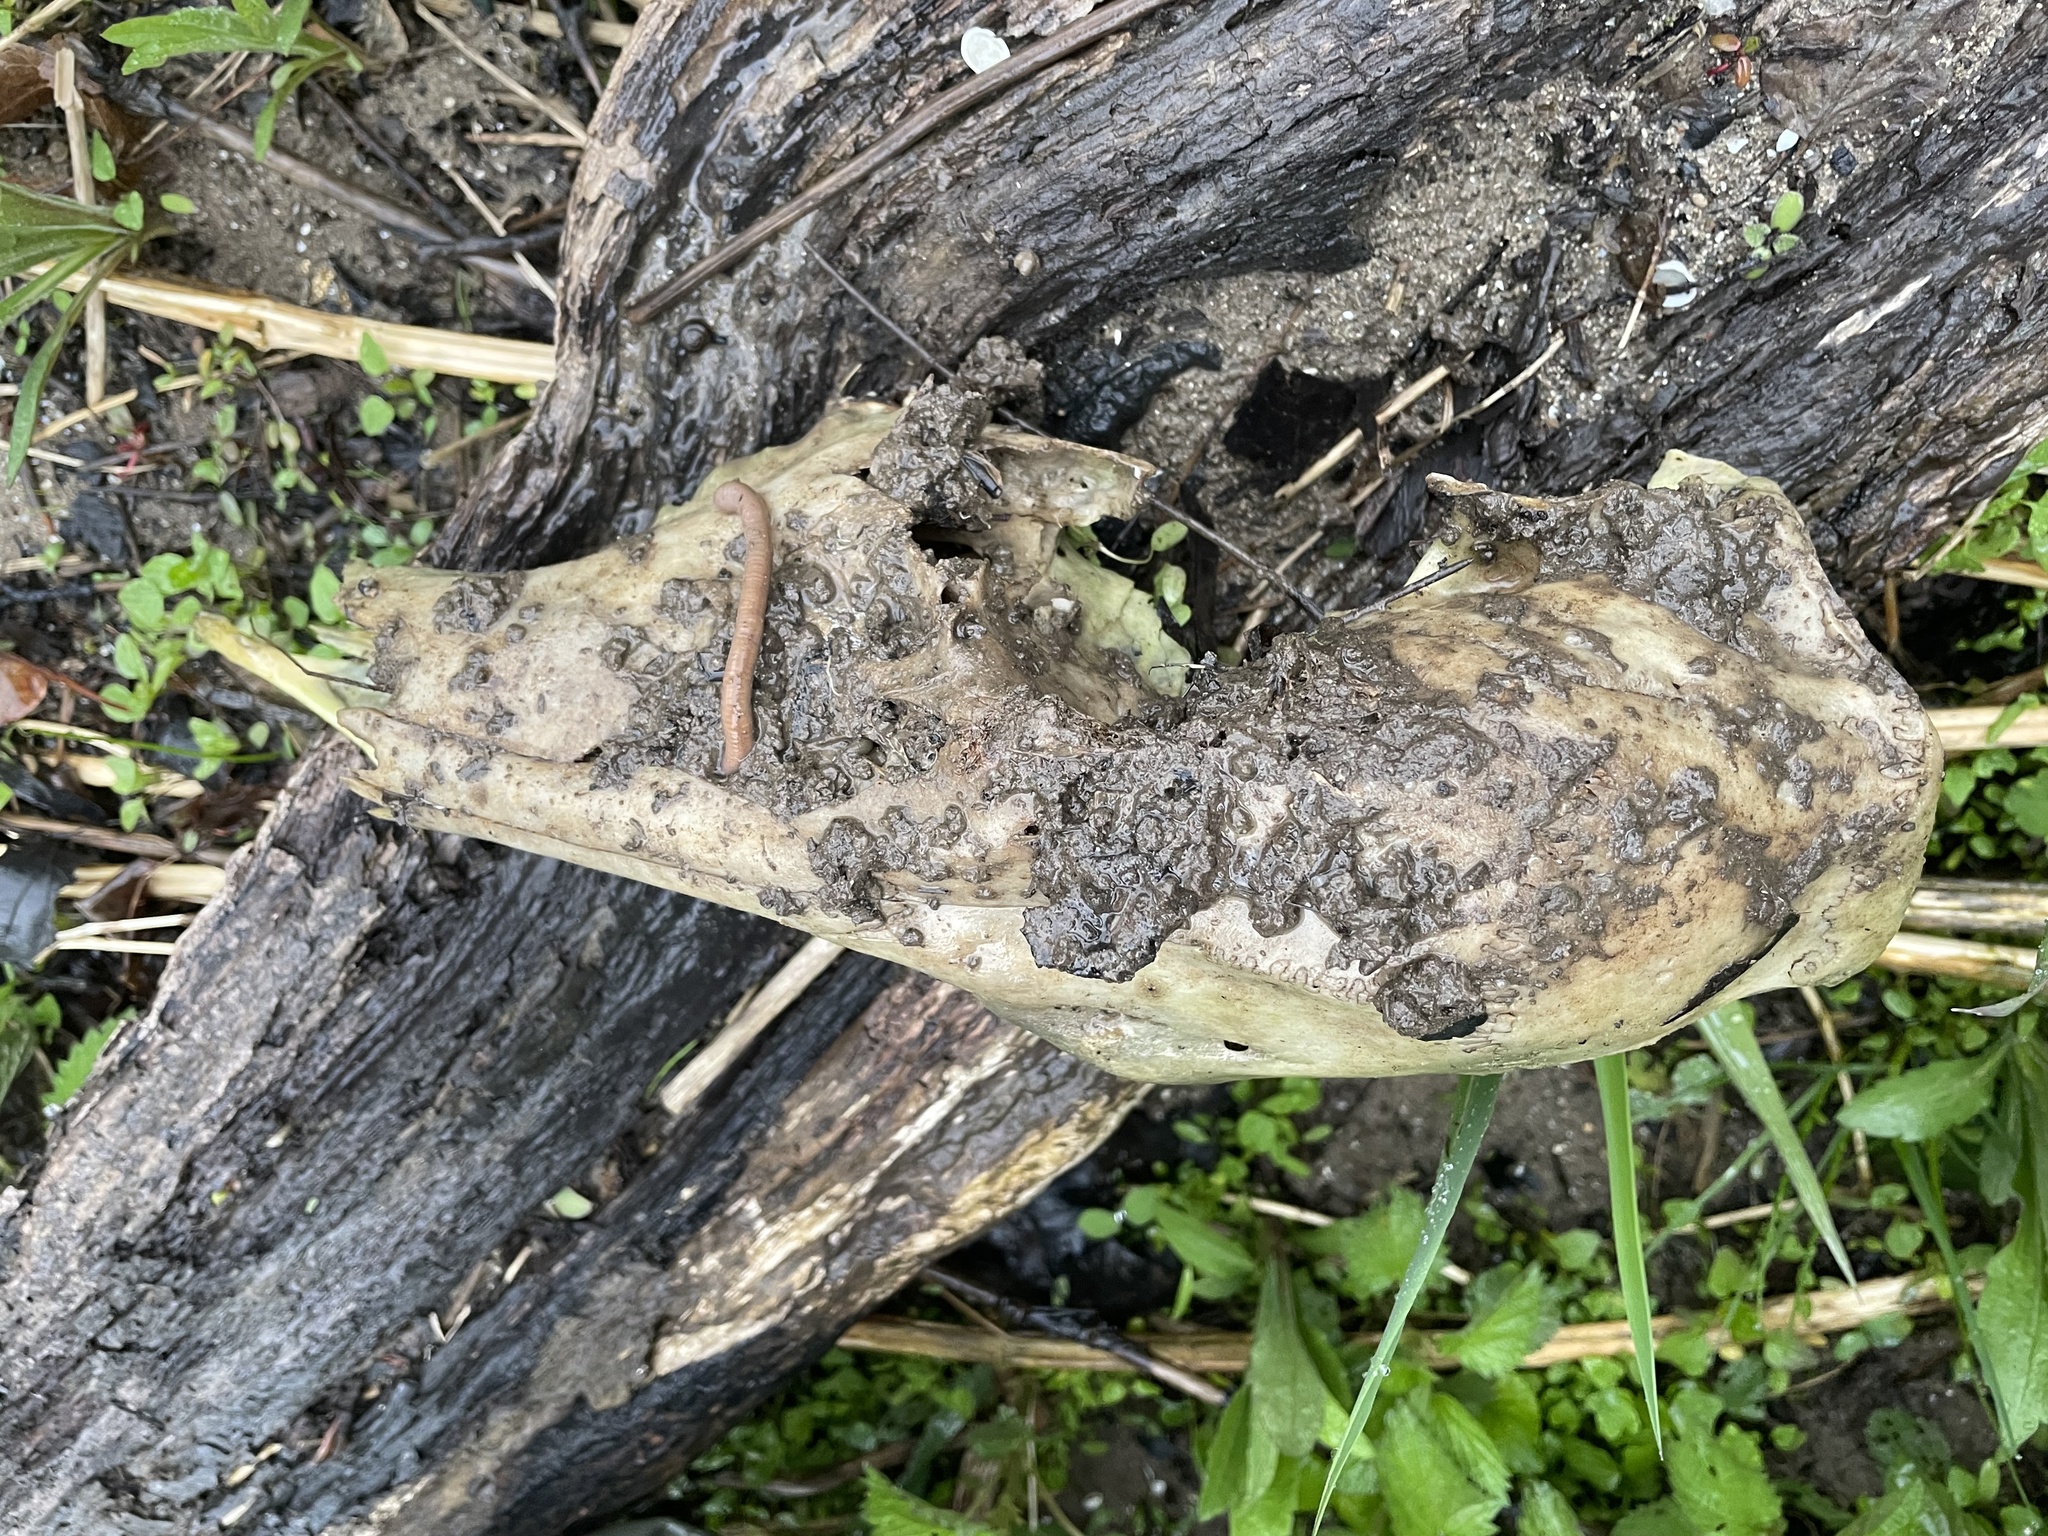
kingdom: Animalia
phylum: Chordata
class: Mammalia
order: Artiodactyla
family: Cervidae
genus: Odocoileus
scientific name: Odocoileus virginianus
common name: White-tailed deer
